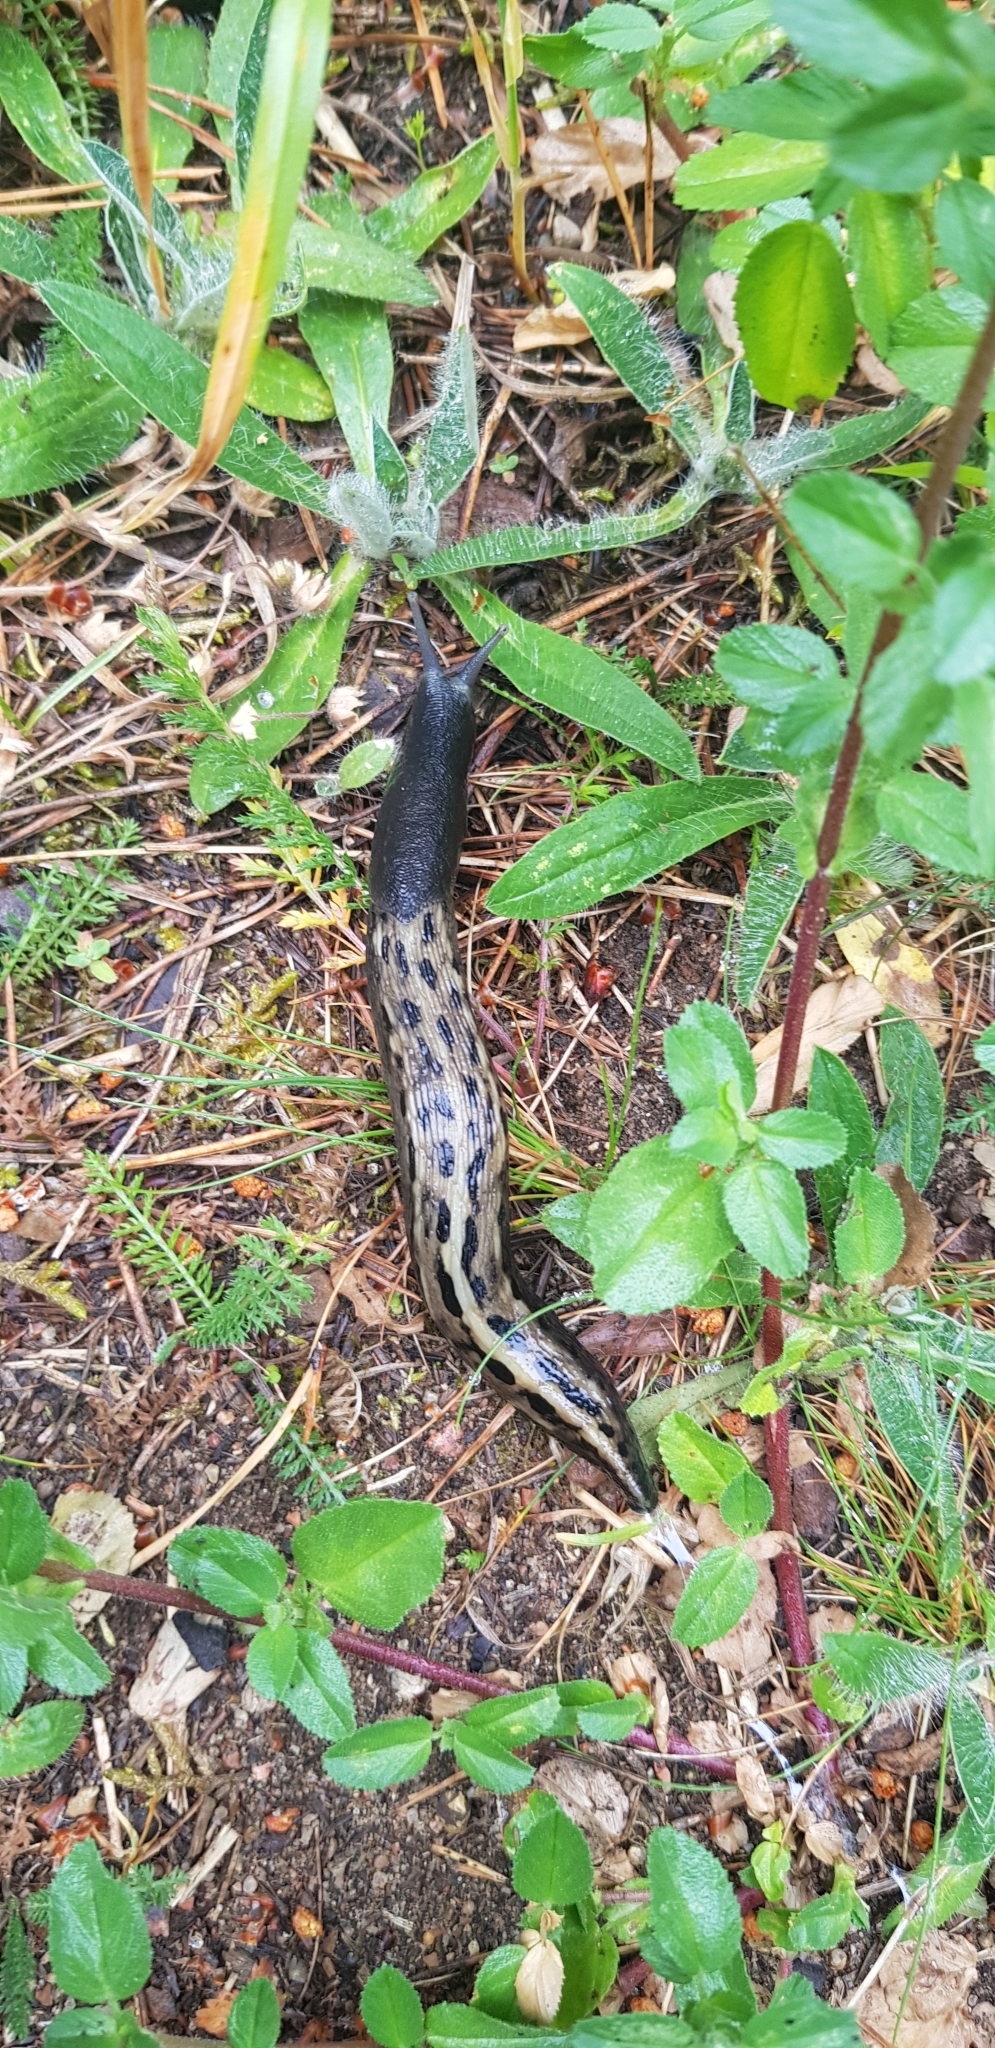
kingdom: Animalia
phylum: Mollusca
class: Gastropoda
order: Stylommatophora
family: Limacidae
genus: Limax
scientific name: Limax cinereoniger
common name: Ash-black slug
